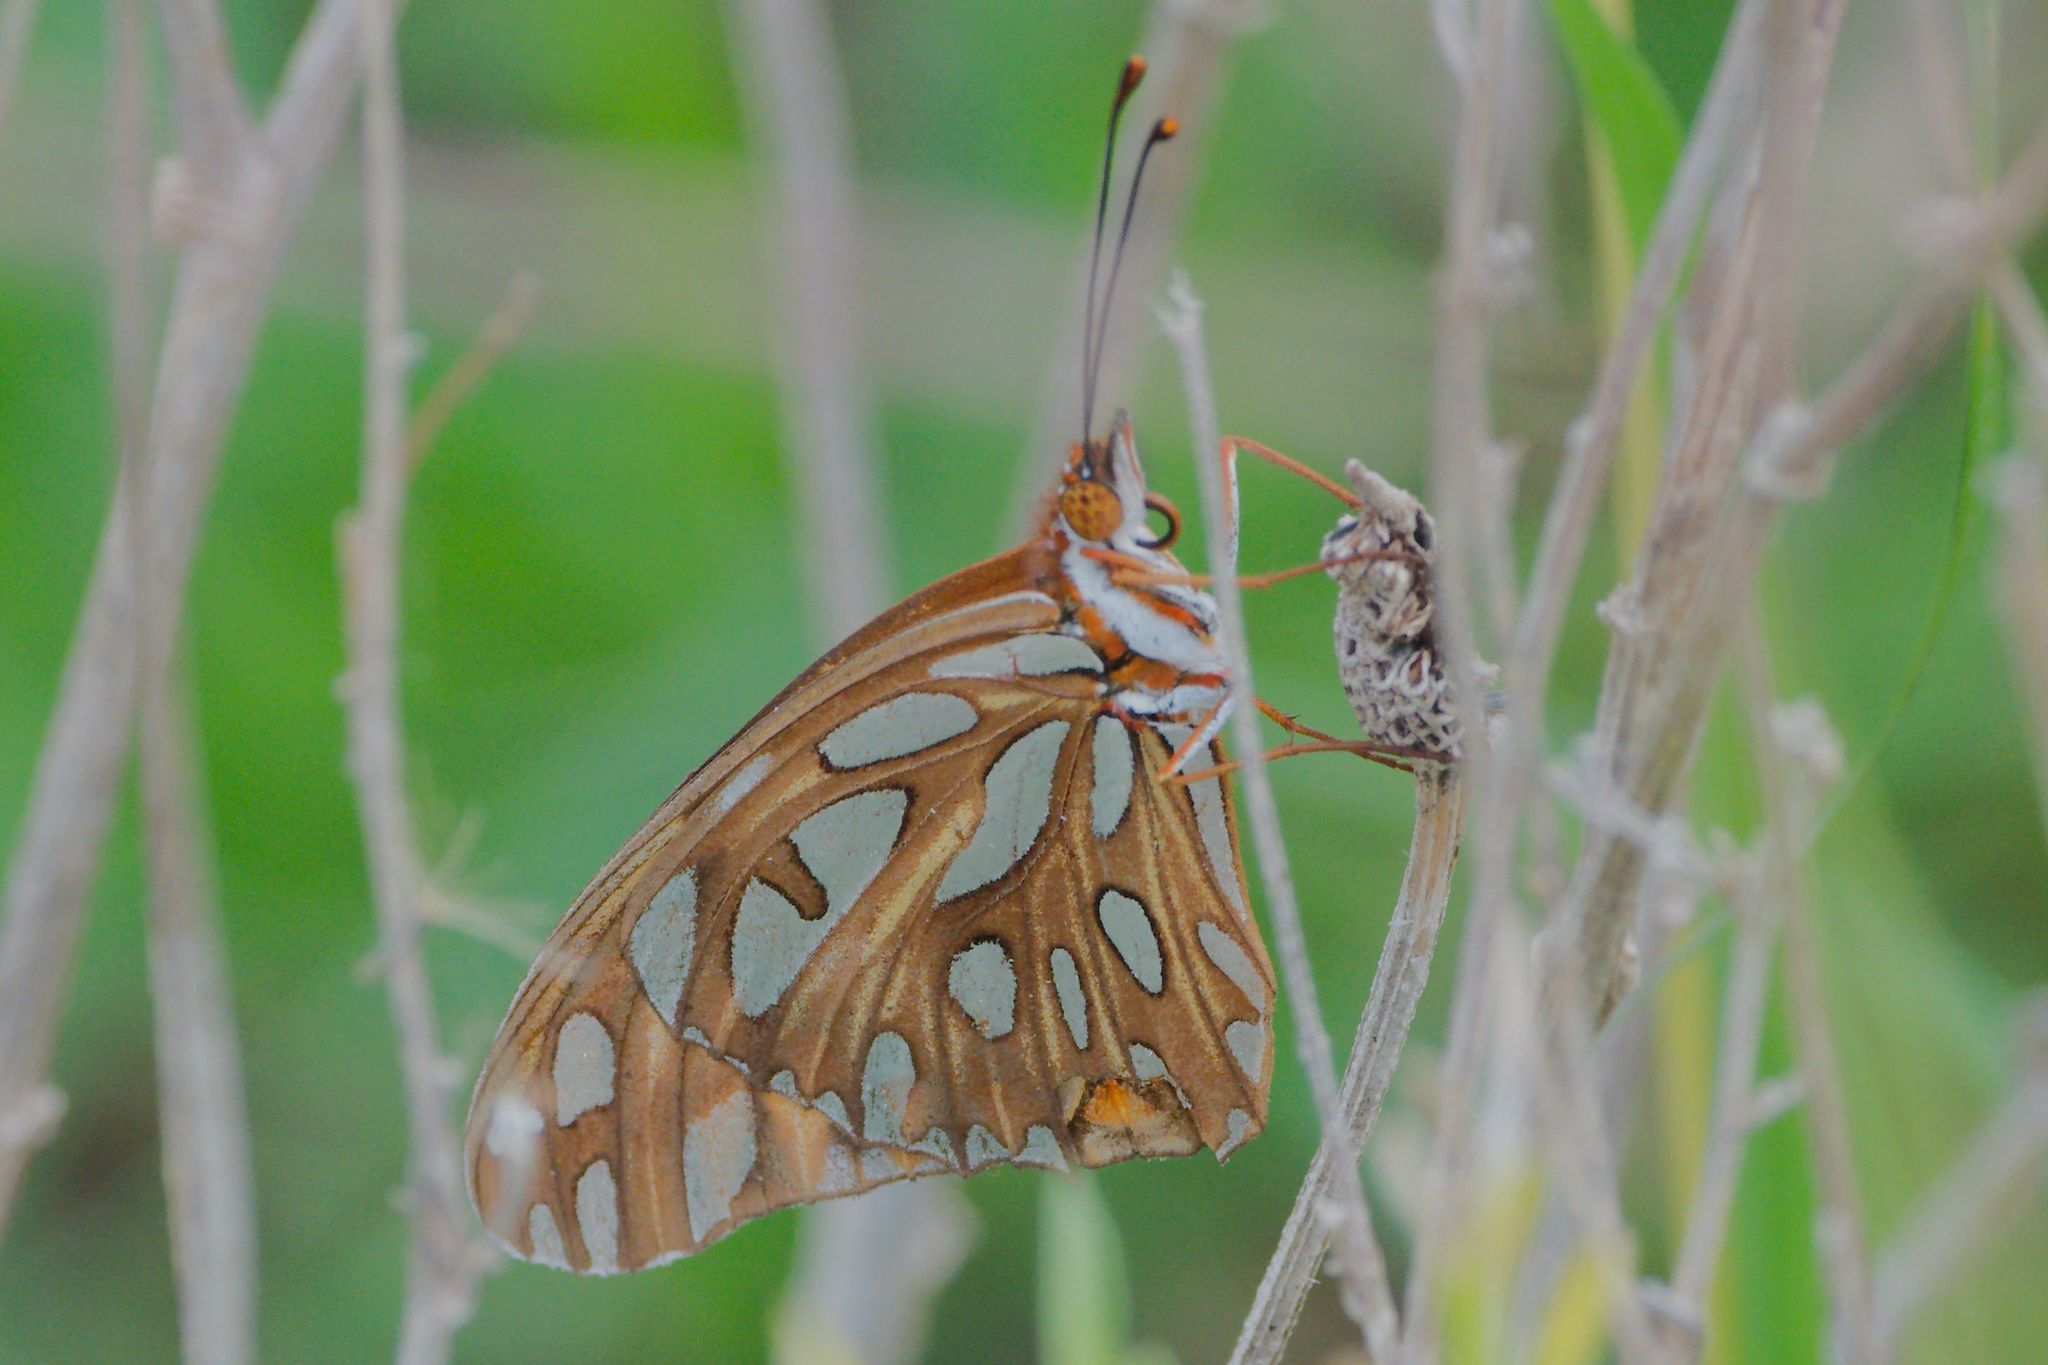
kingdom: Animalia
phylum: Arthropoda
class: Insecta
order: Lepidoptera
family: Nymphalidae
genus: Dione
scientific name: Dione vanillae
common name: Gulf fritillary
